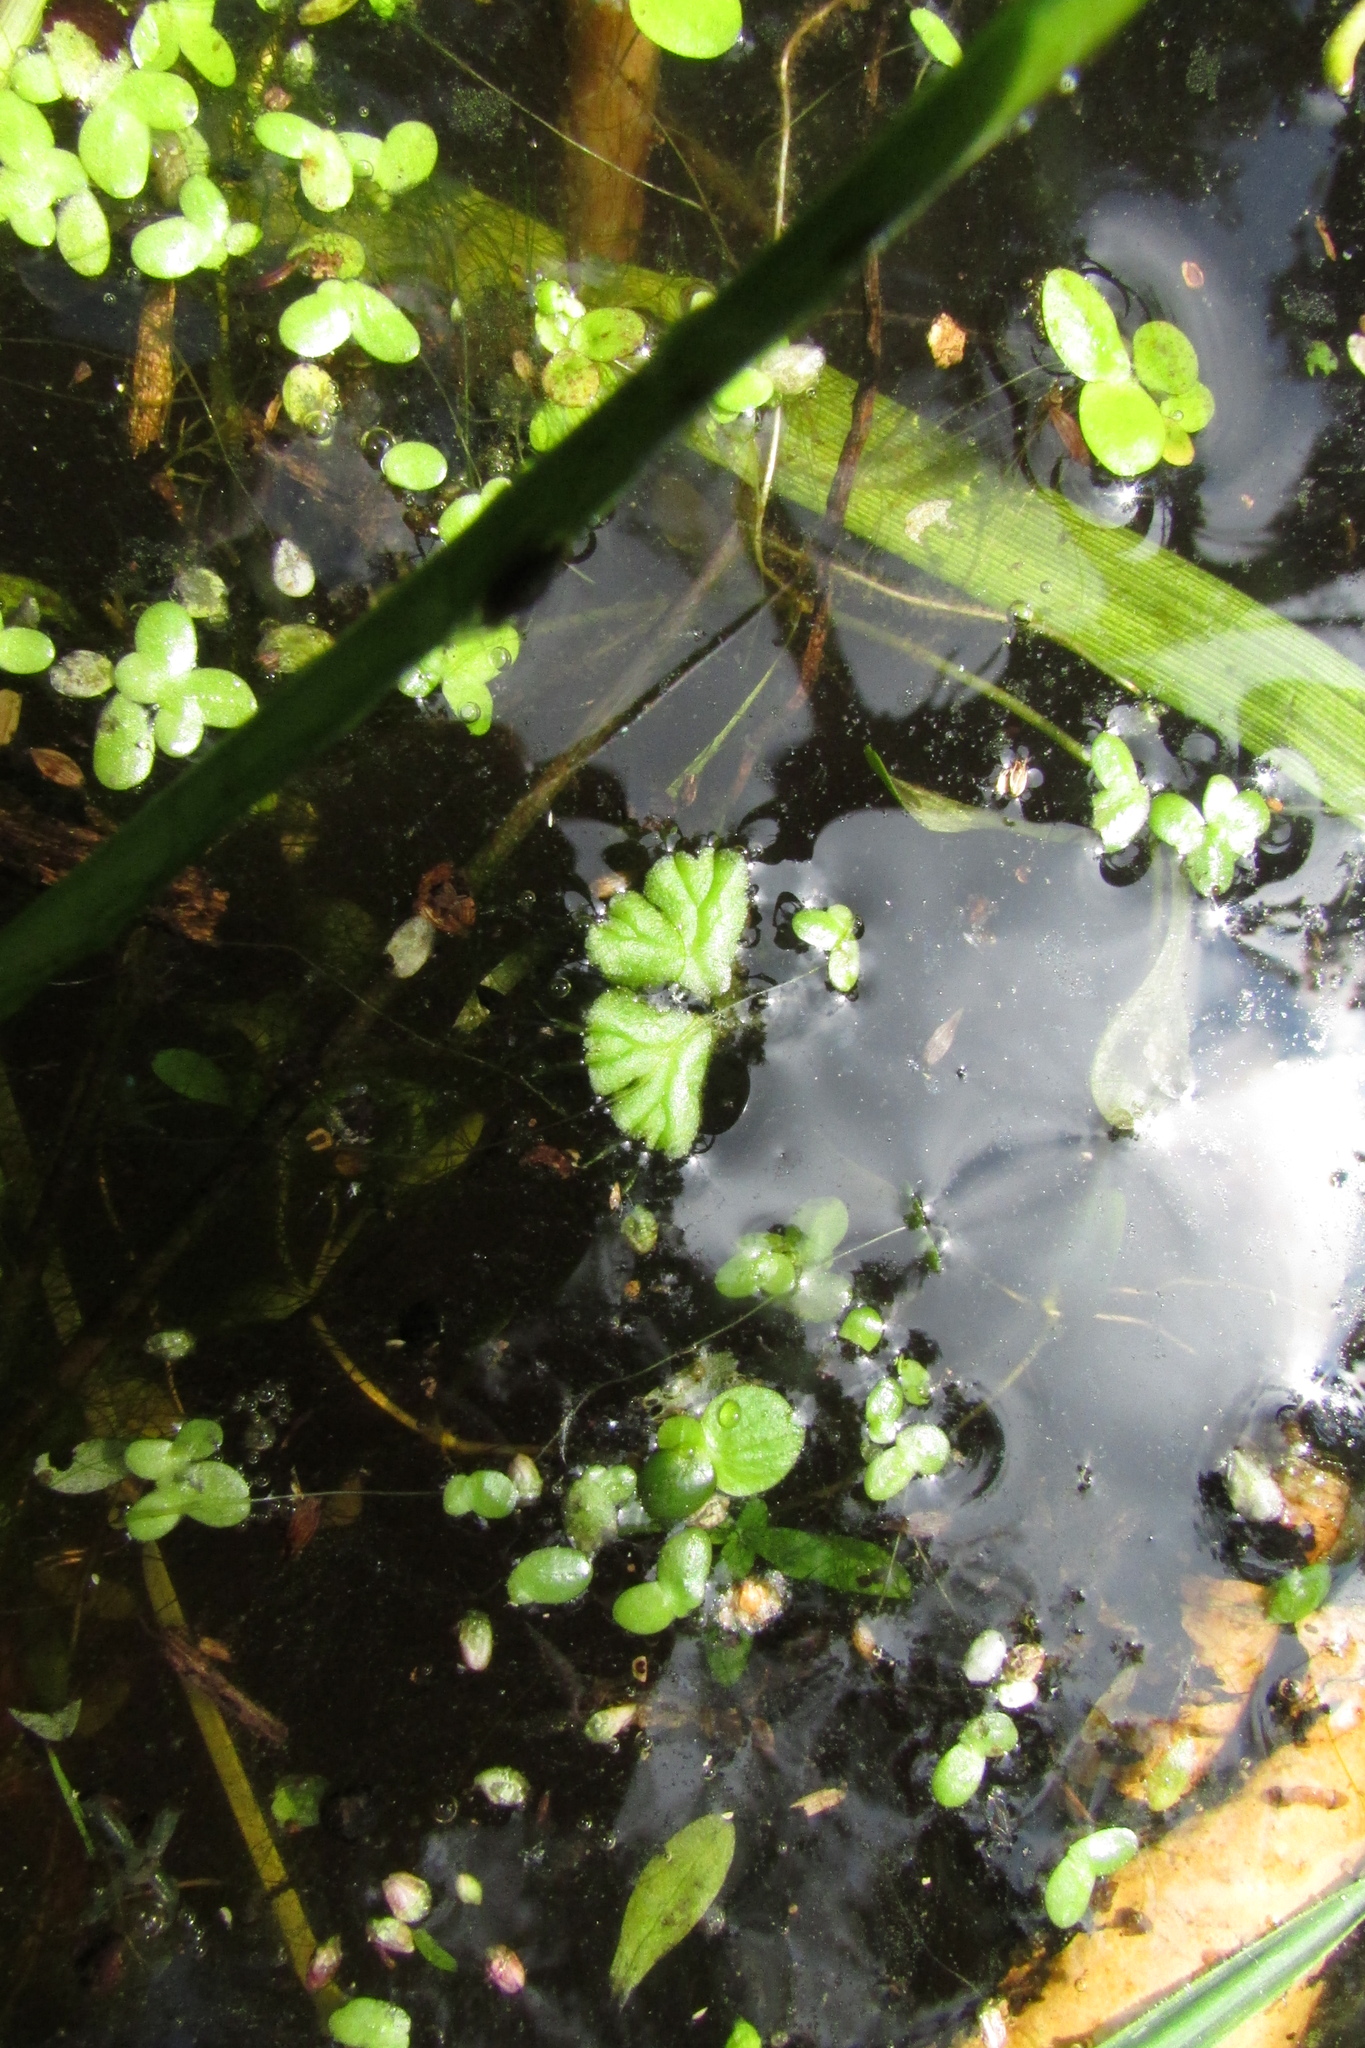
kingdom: Plantae
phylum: Marchantiophyta
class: Marchantiopsida
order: Marchantiales
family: Ricciaceae
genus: Ricciocarpos
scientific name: Ricciocarpos natans
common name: Purple-fringed liverwort
